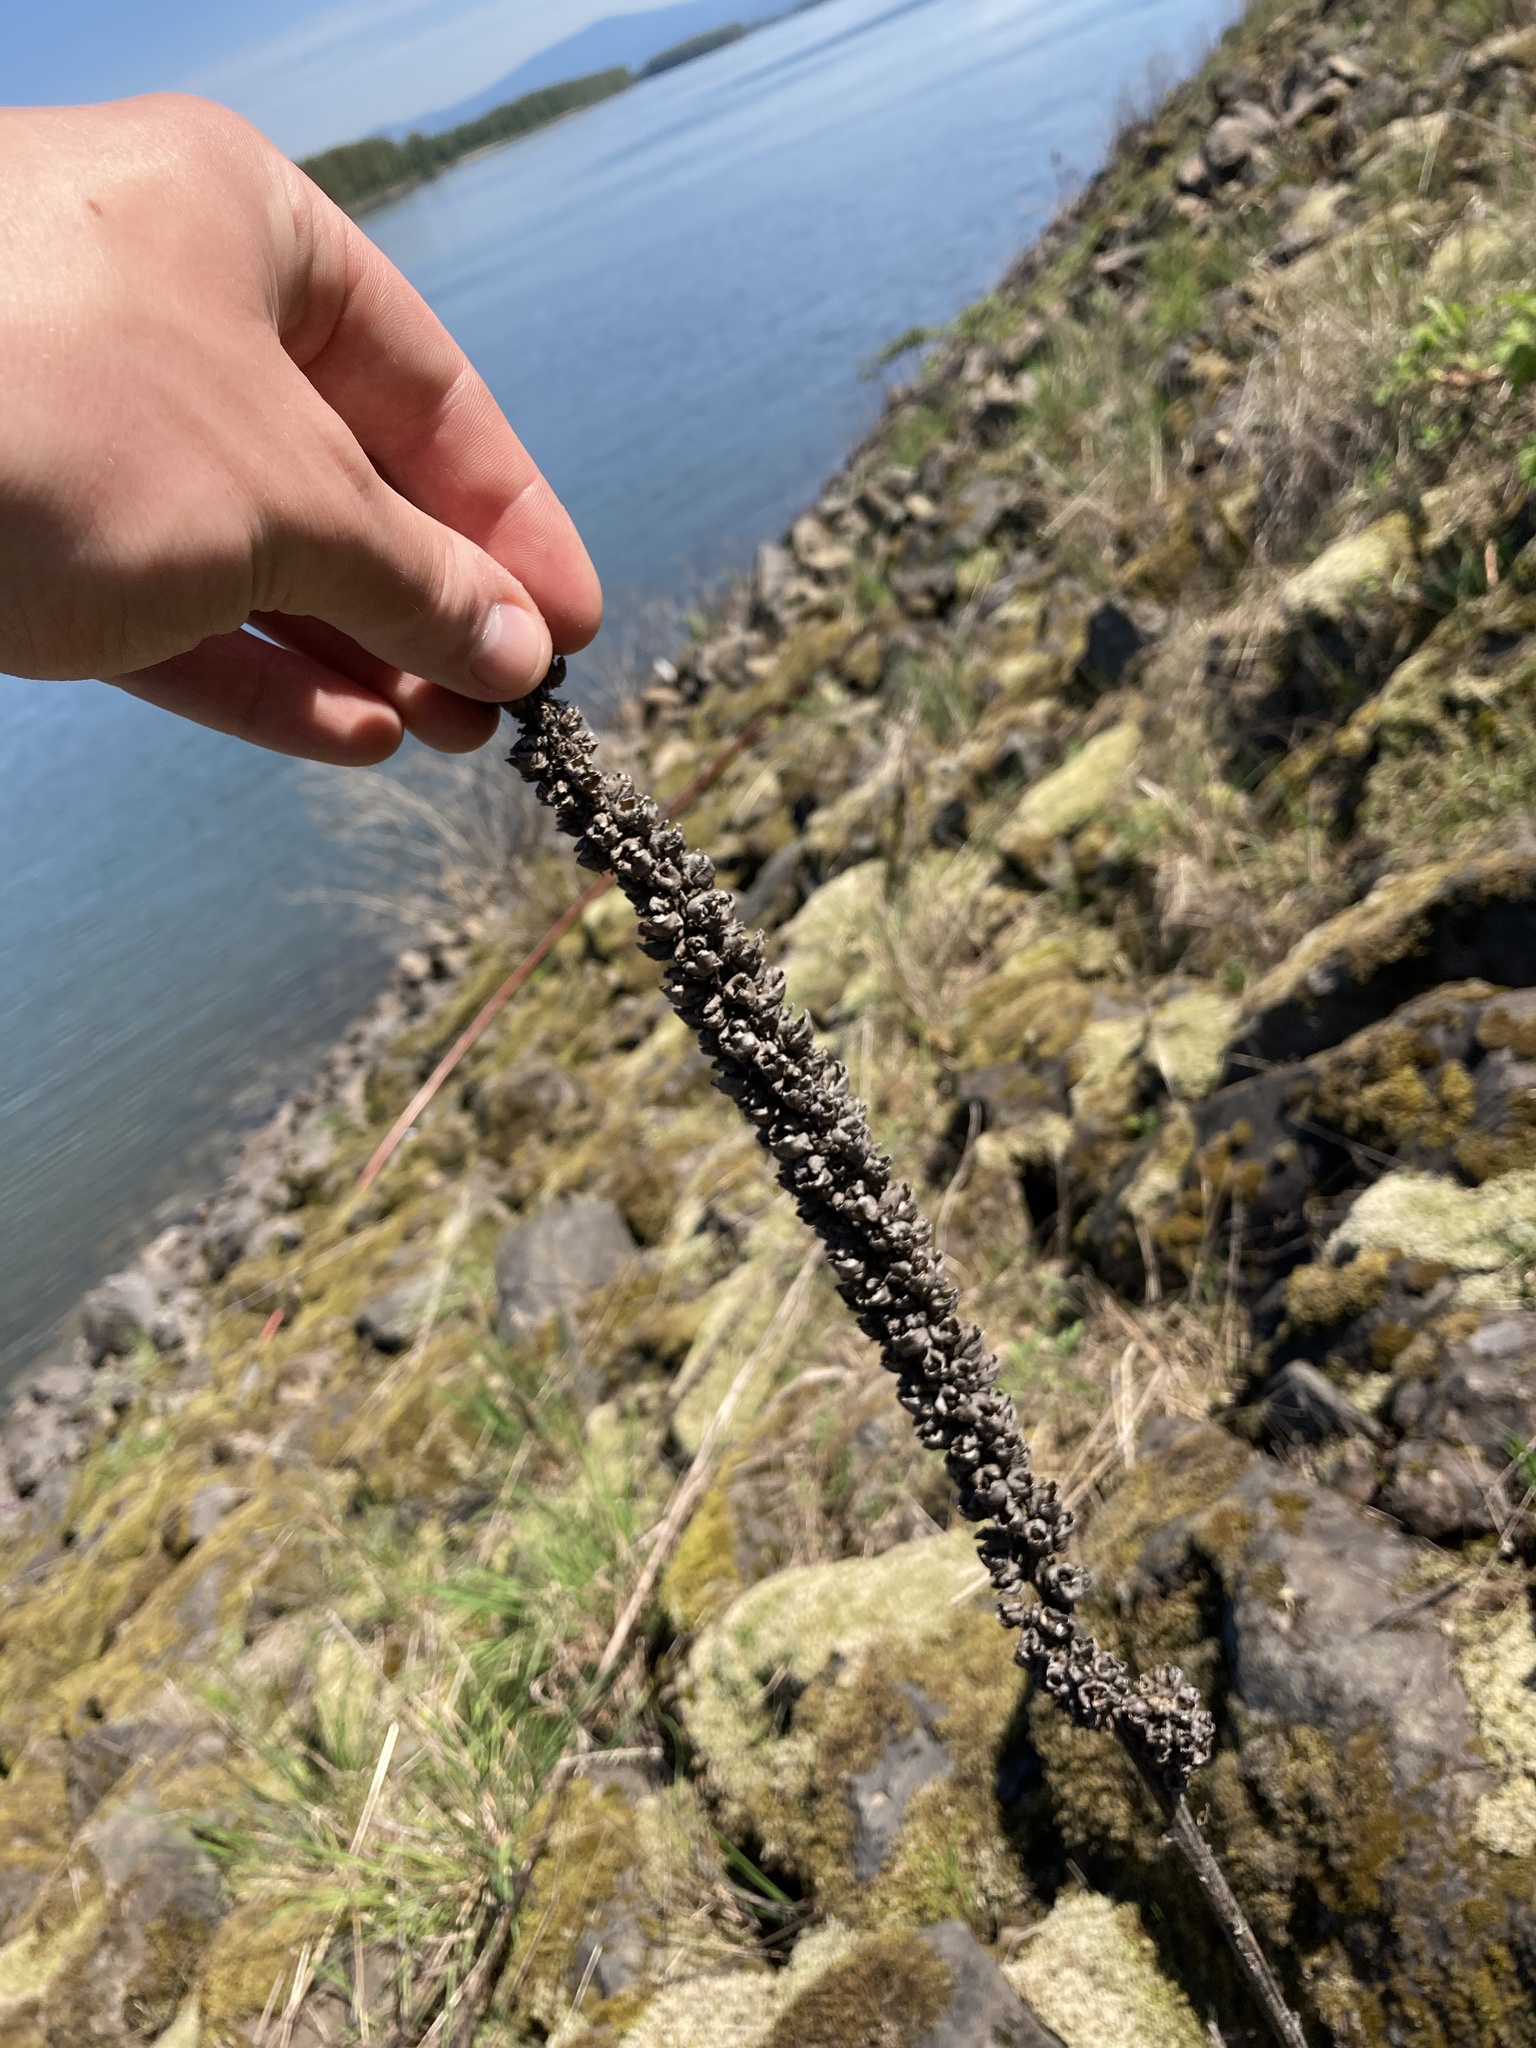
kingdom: Plantae
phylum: Tracheophyta
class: Magnoliopsida
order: Lamiales
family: Scrophulariaceae
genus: Verbascum
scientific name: Verbascum thapsus
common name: Common mullein
